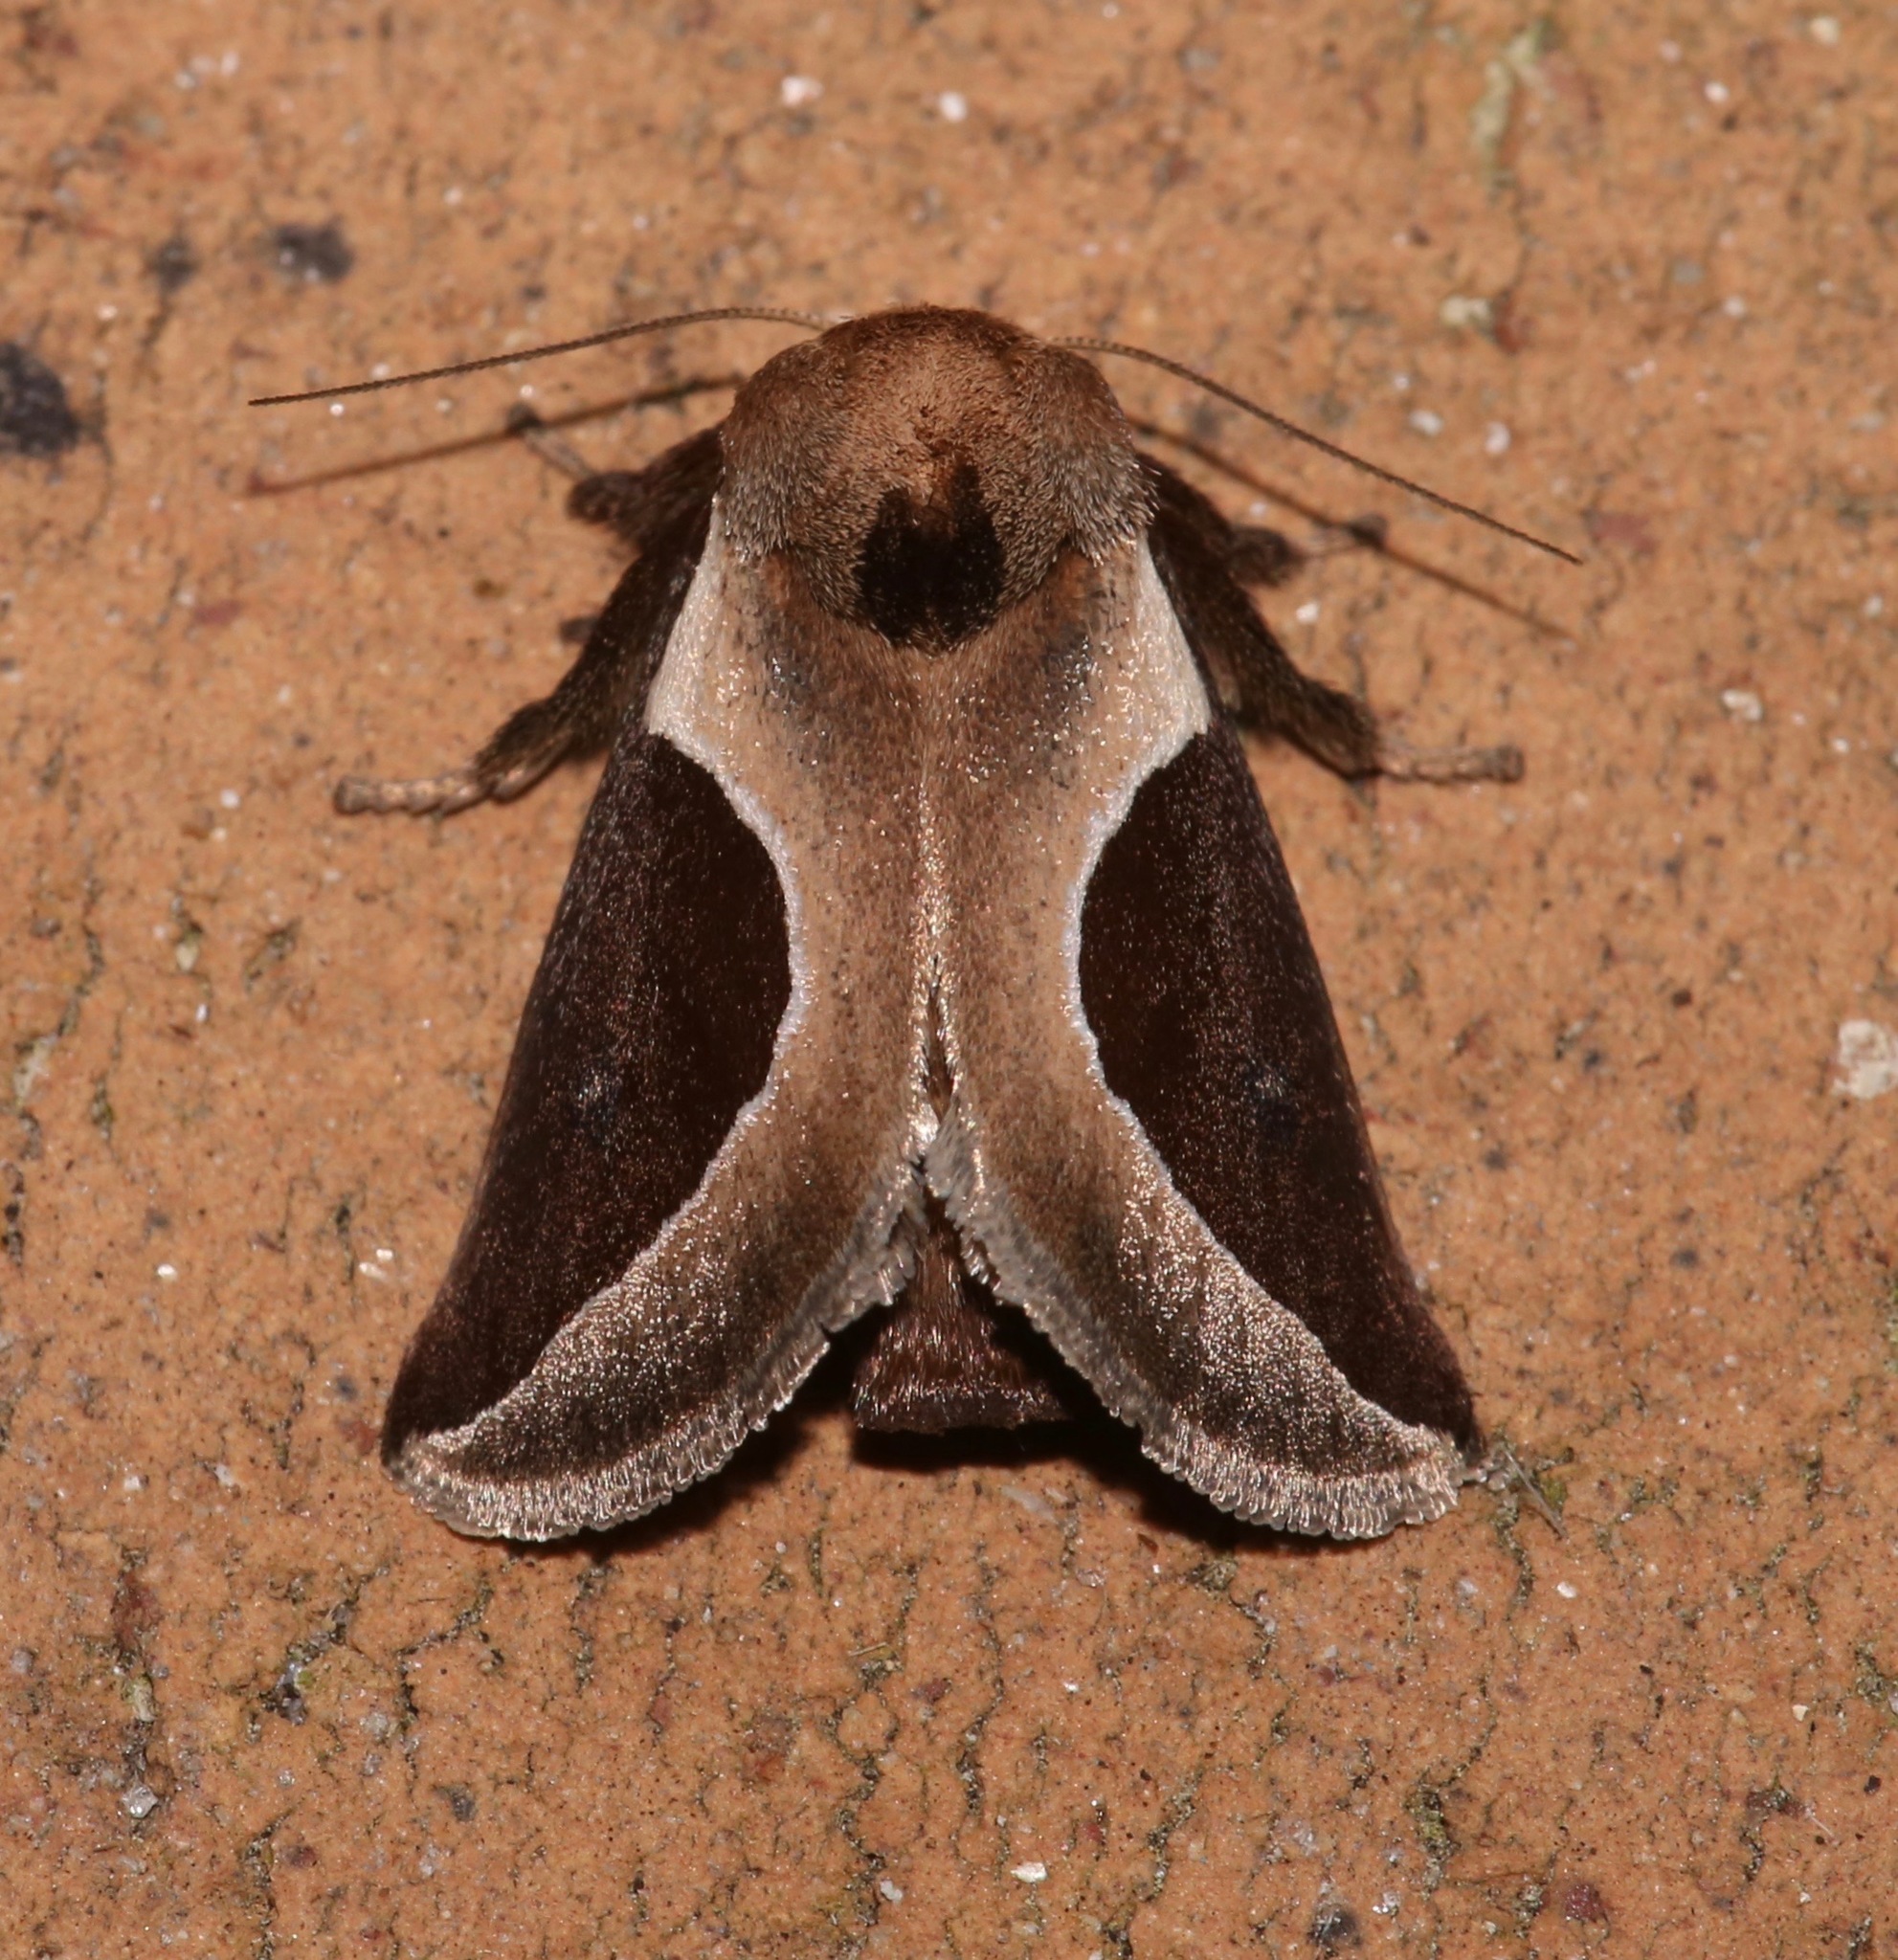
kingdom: Animalia
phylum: Arthropoda
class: Insecta
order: Lepidoptera
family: Limacodidae
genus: Prolimacodes
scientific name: Prolimacodes badia
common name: Skiff moth
